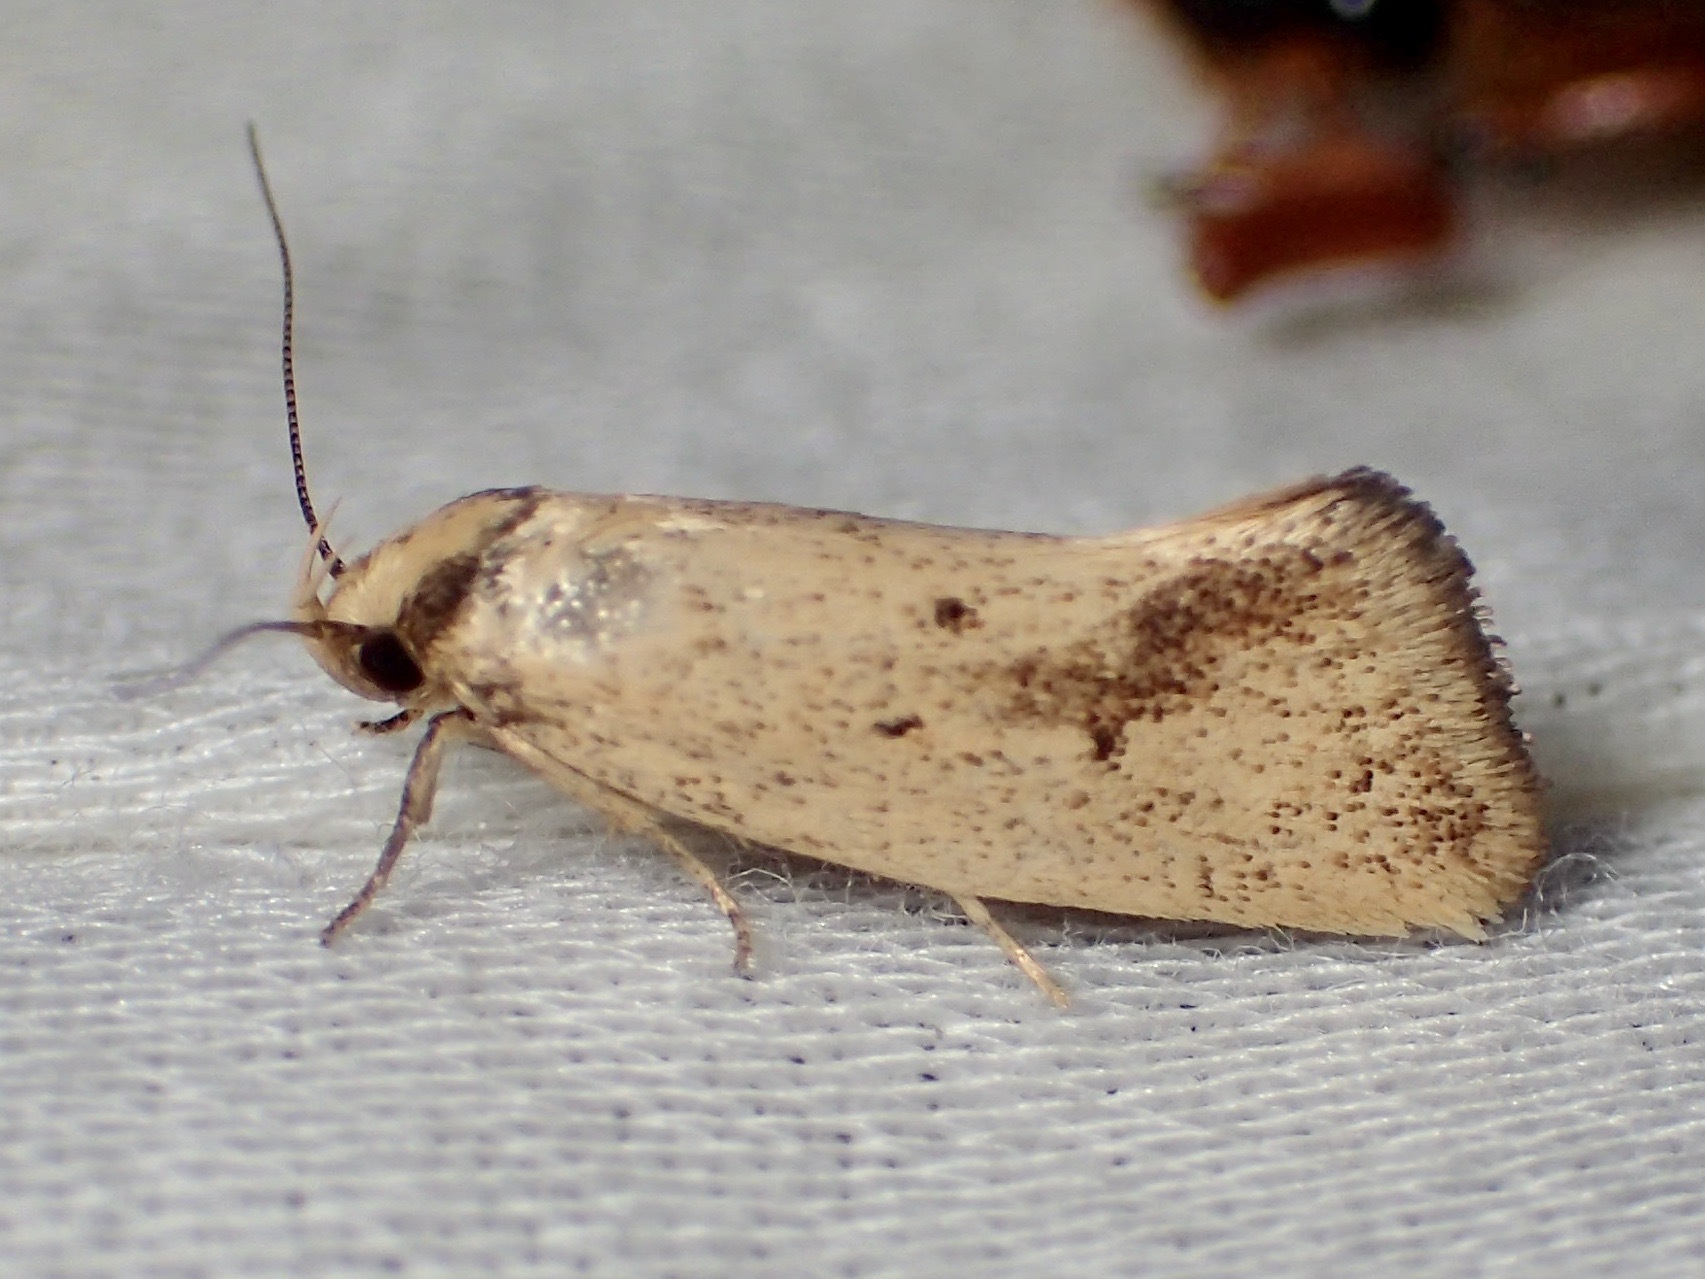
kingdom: Animalia
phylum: Arthropoda
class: Insecta
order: Lepidoptera
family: Oecophoridae
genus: Scoliocheta
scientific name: Scoliocheta ergatis
